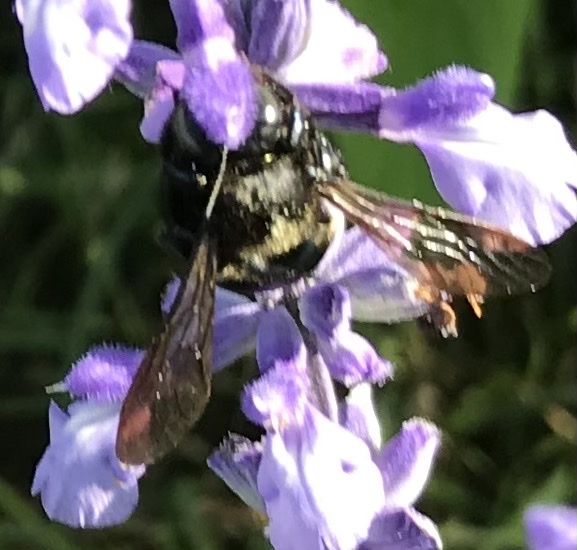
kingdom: Animalia
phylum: Arthropoda
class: Insecta
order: Hymenoptera
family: Apidae
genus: Xylocopa
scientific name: Xylocopa micans
